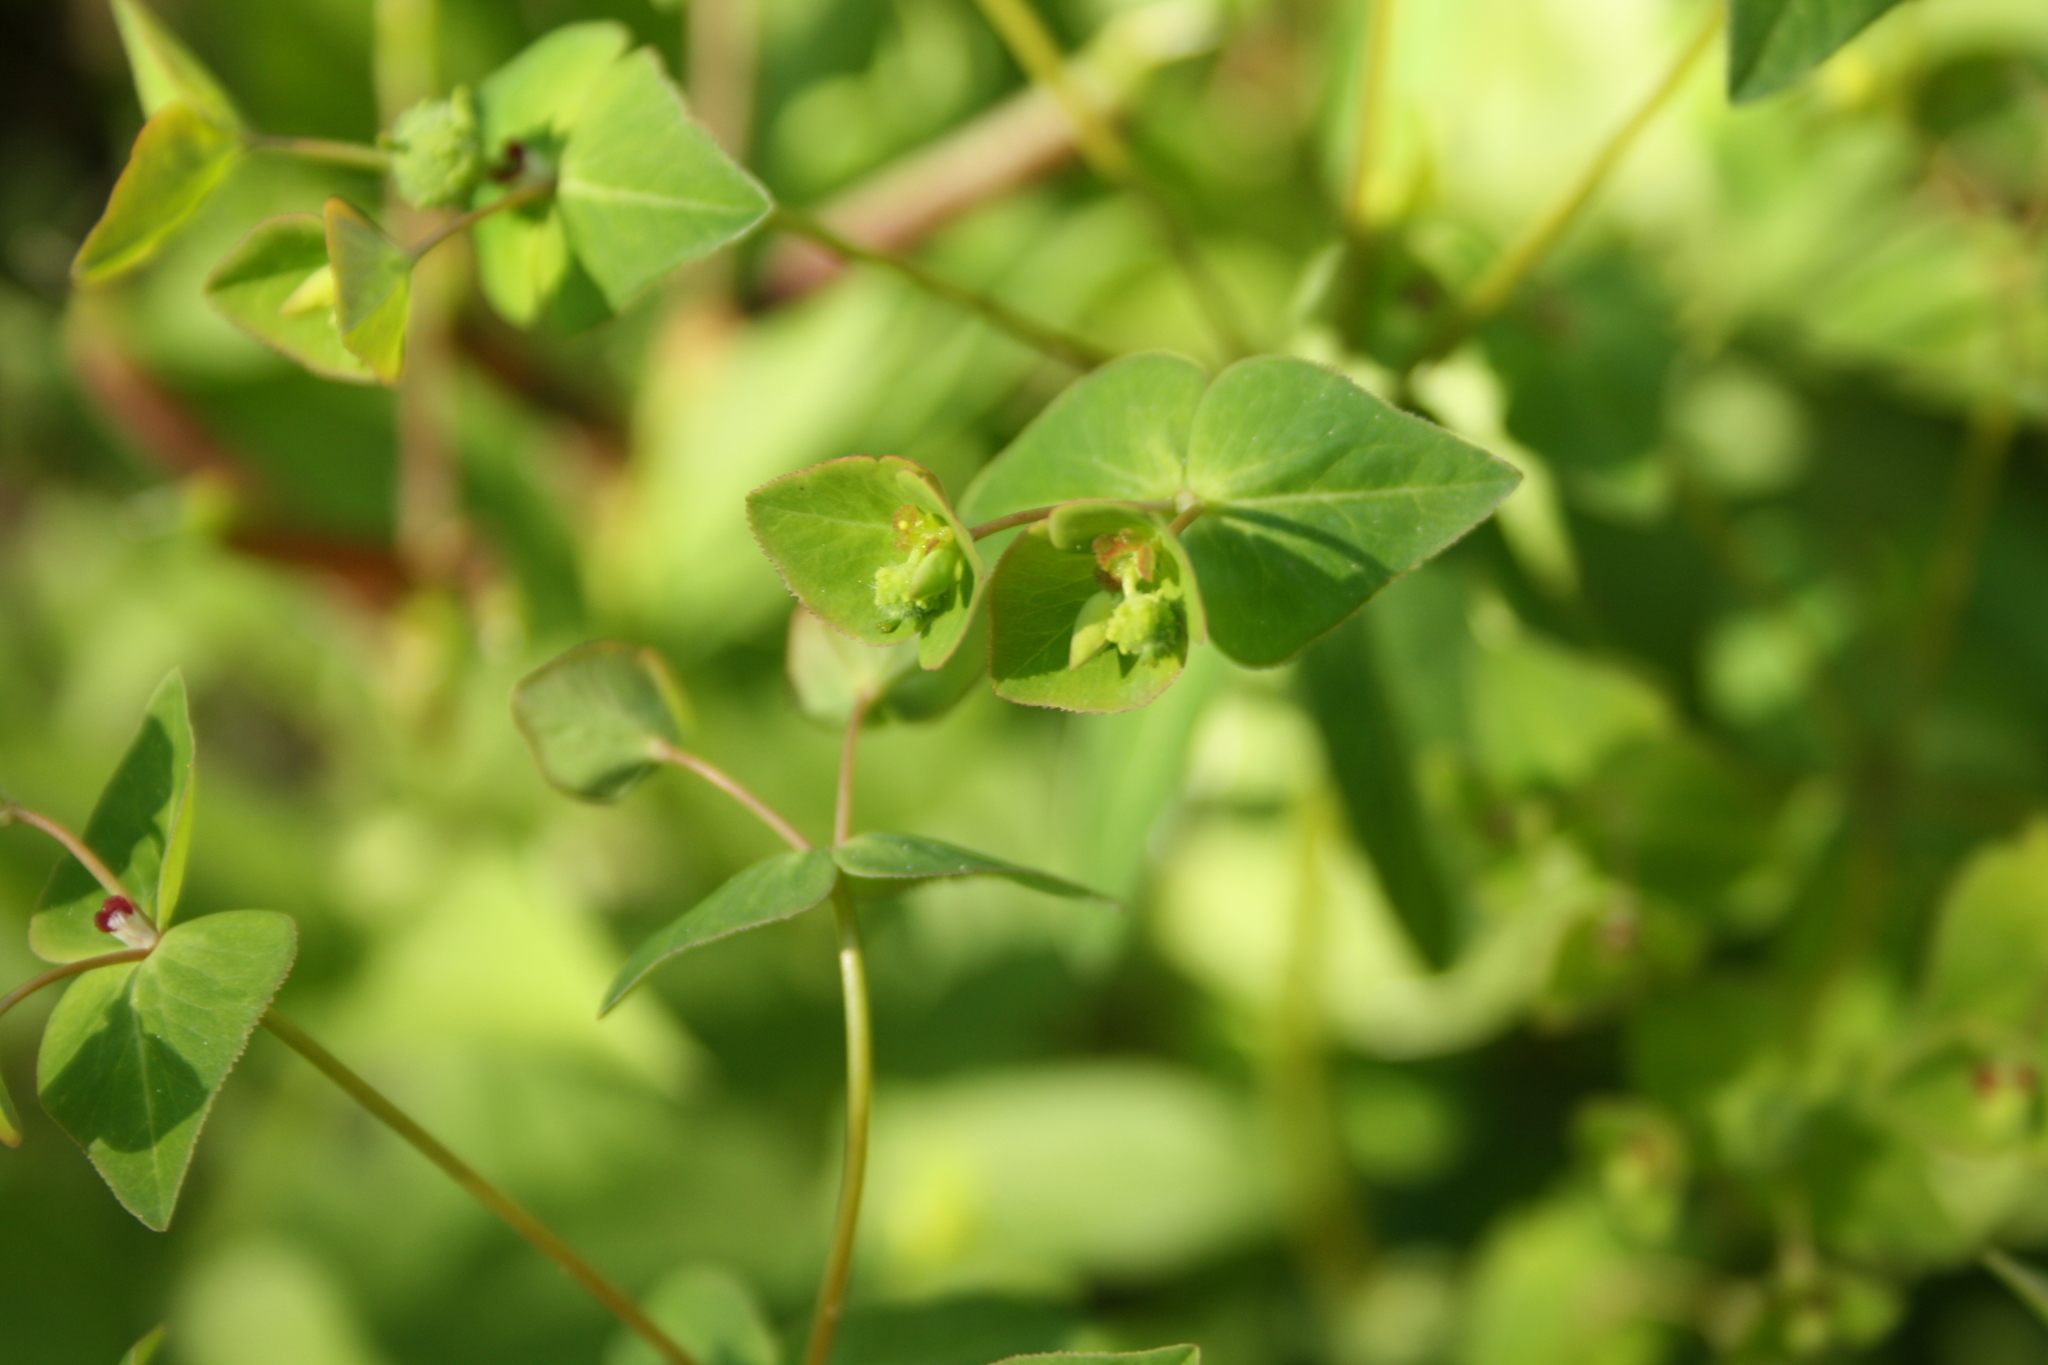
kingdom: Plantae
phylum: Tracheophyta
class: Magnoliopsida
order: Malpighiales
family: Euphorbiaceae
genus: Euphorbia
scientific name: Euphorbia dulcis
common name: Sweet spurge
